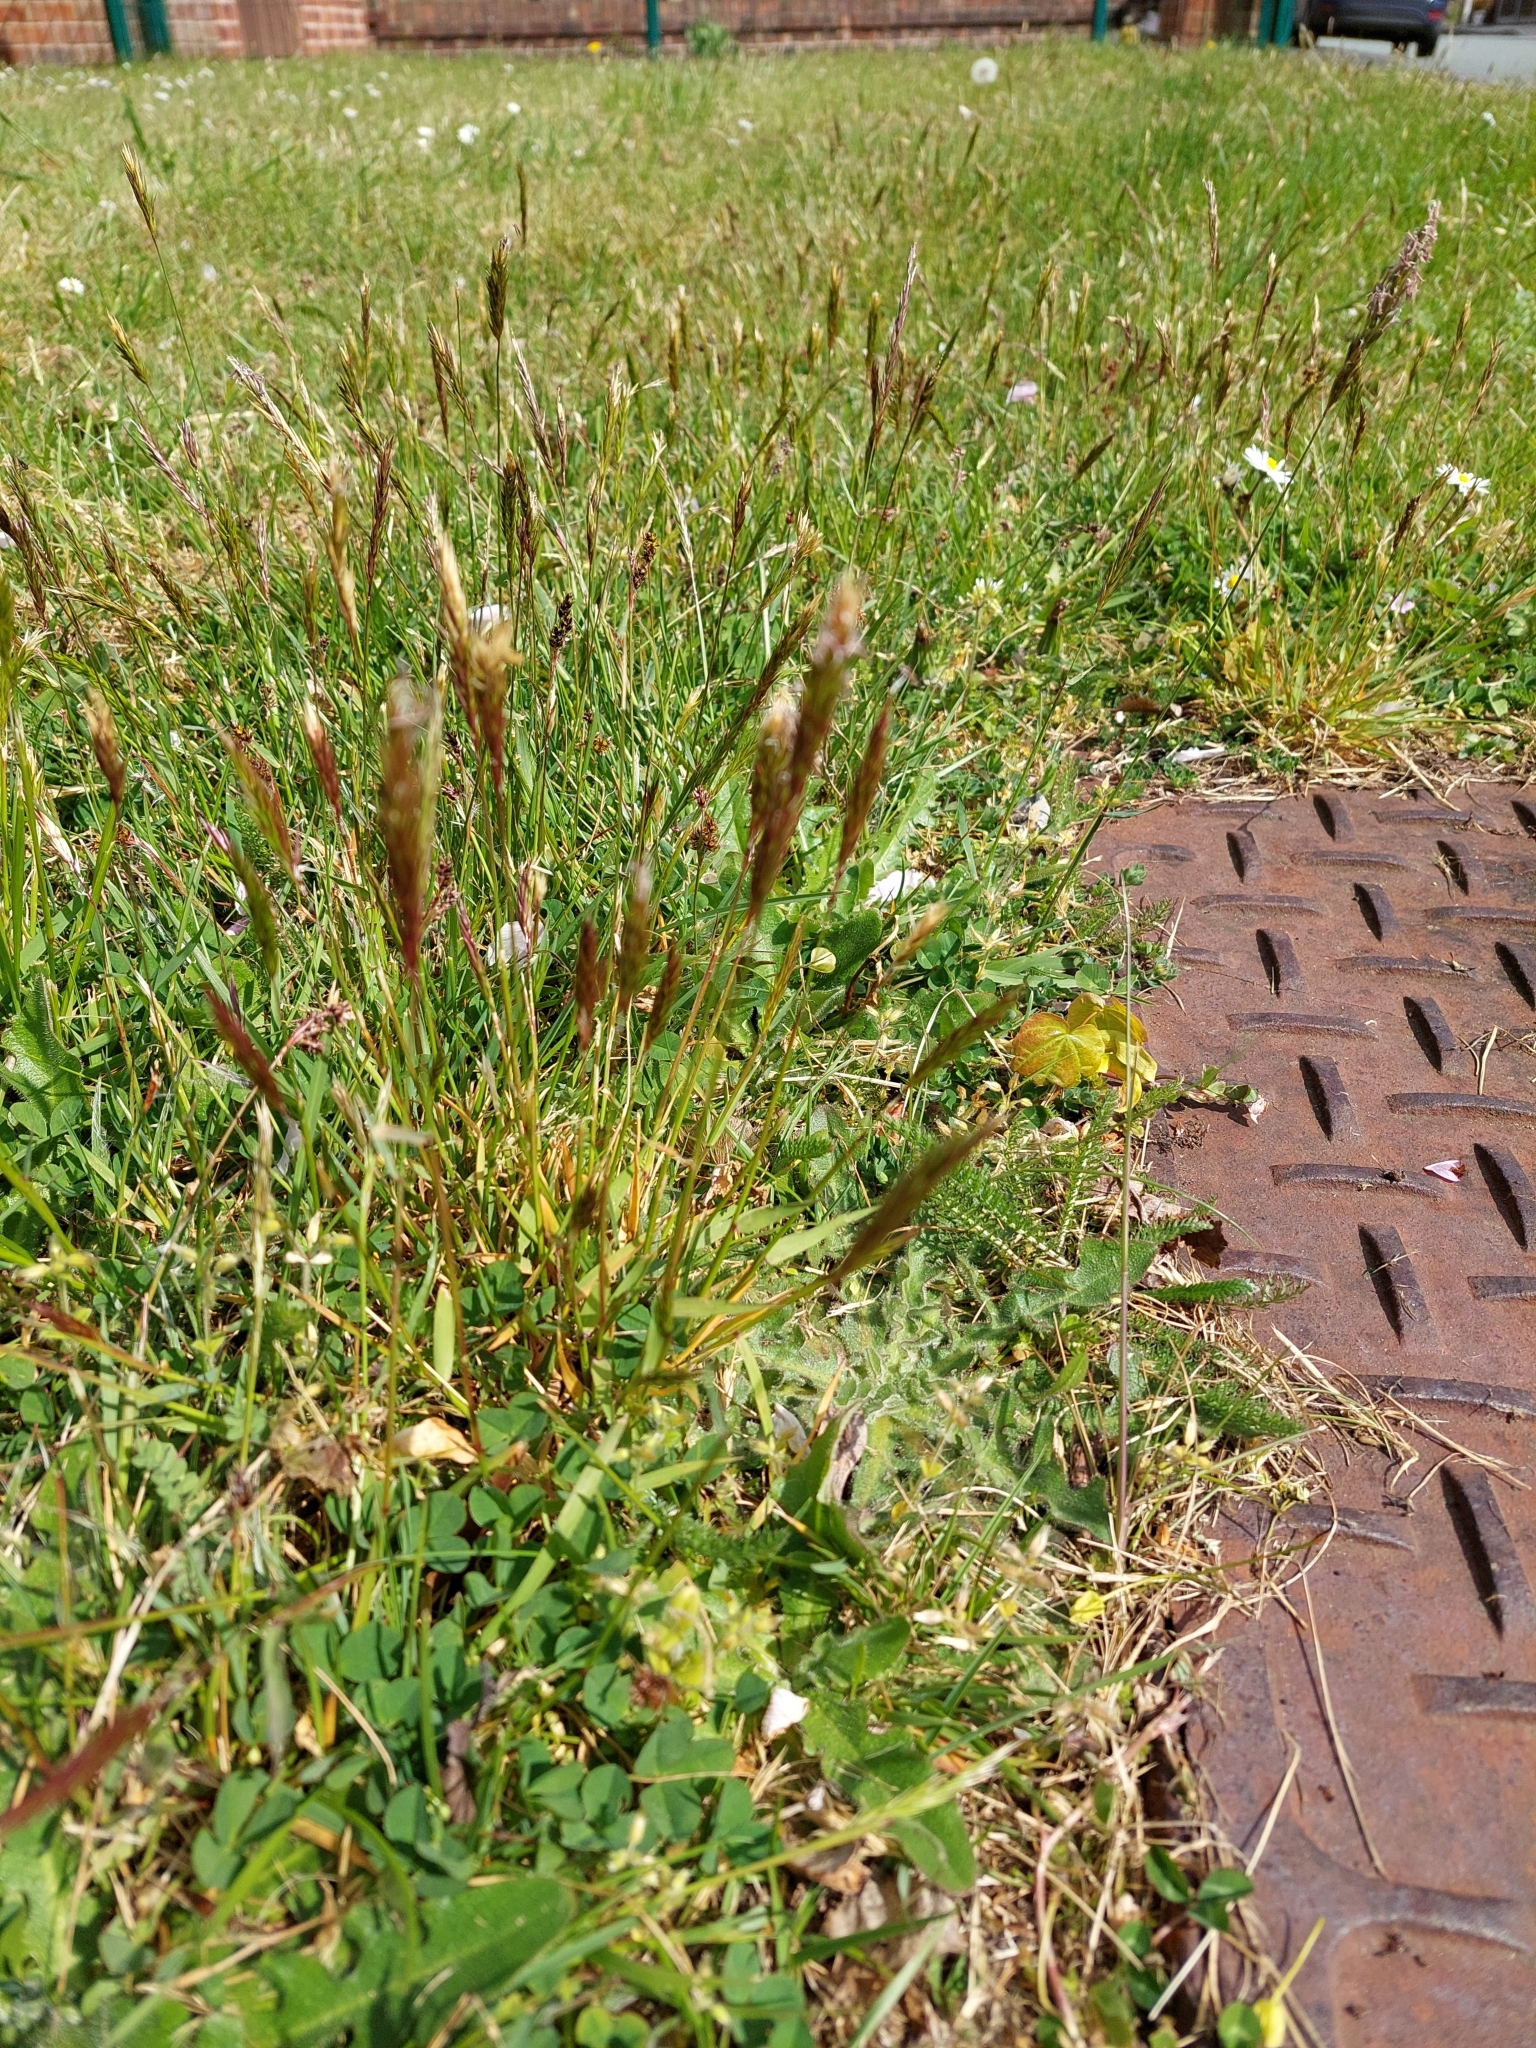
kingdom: Plantae
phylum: Tracheophyta
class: Liliopsida
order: Poales
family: Poaceae
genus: Anthoxanthum
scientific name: Anthoxanthum odoratum
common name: Sweet vernalgrass
